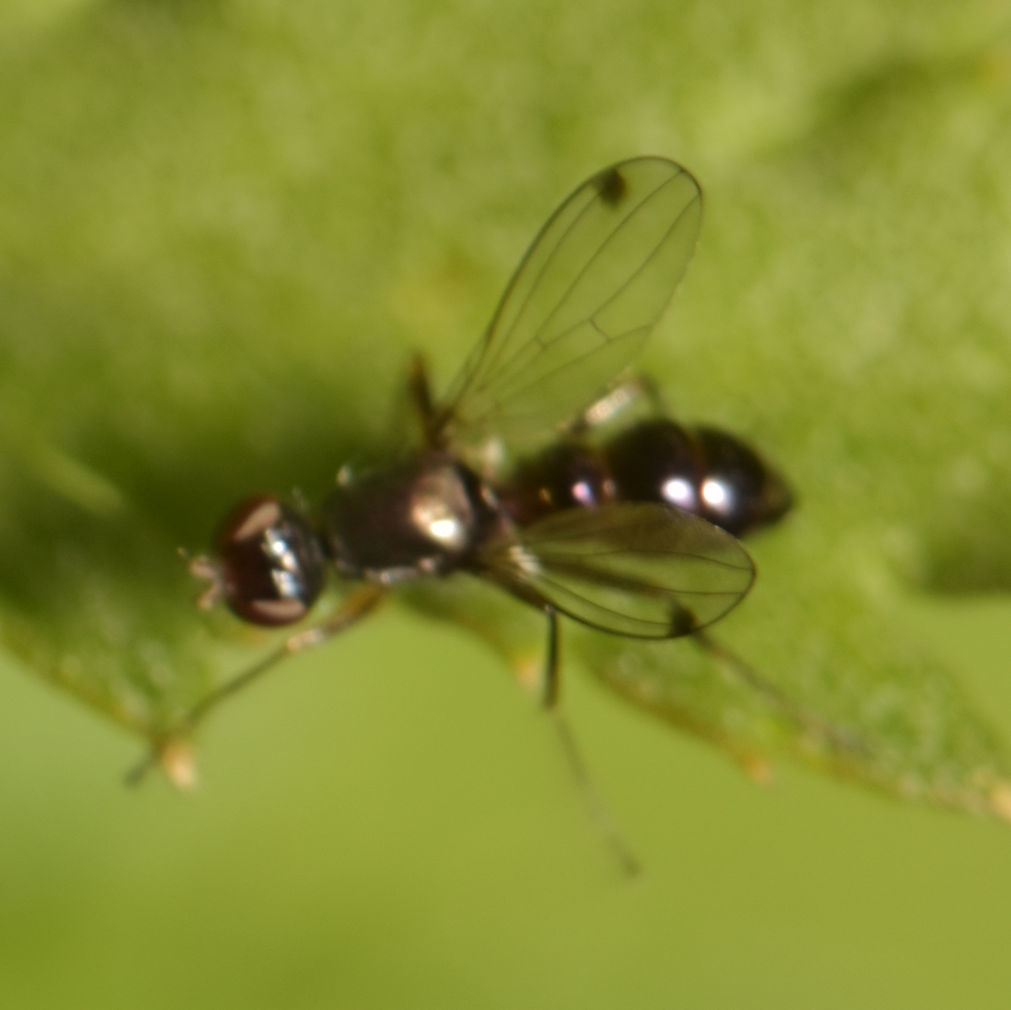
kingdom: Animalia
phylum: Arthropoda
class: Insecta
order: Diptera
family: Sepsidae
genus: Sepsis
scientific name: Sepsis
